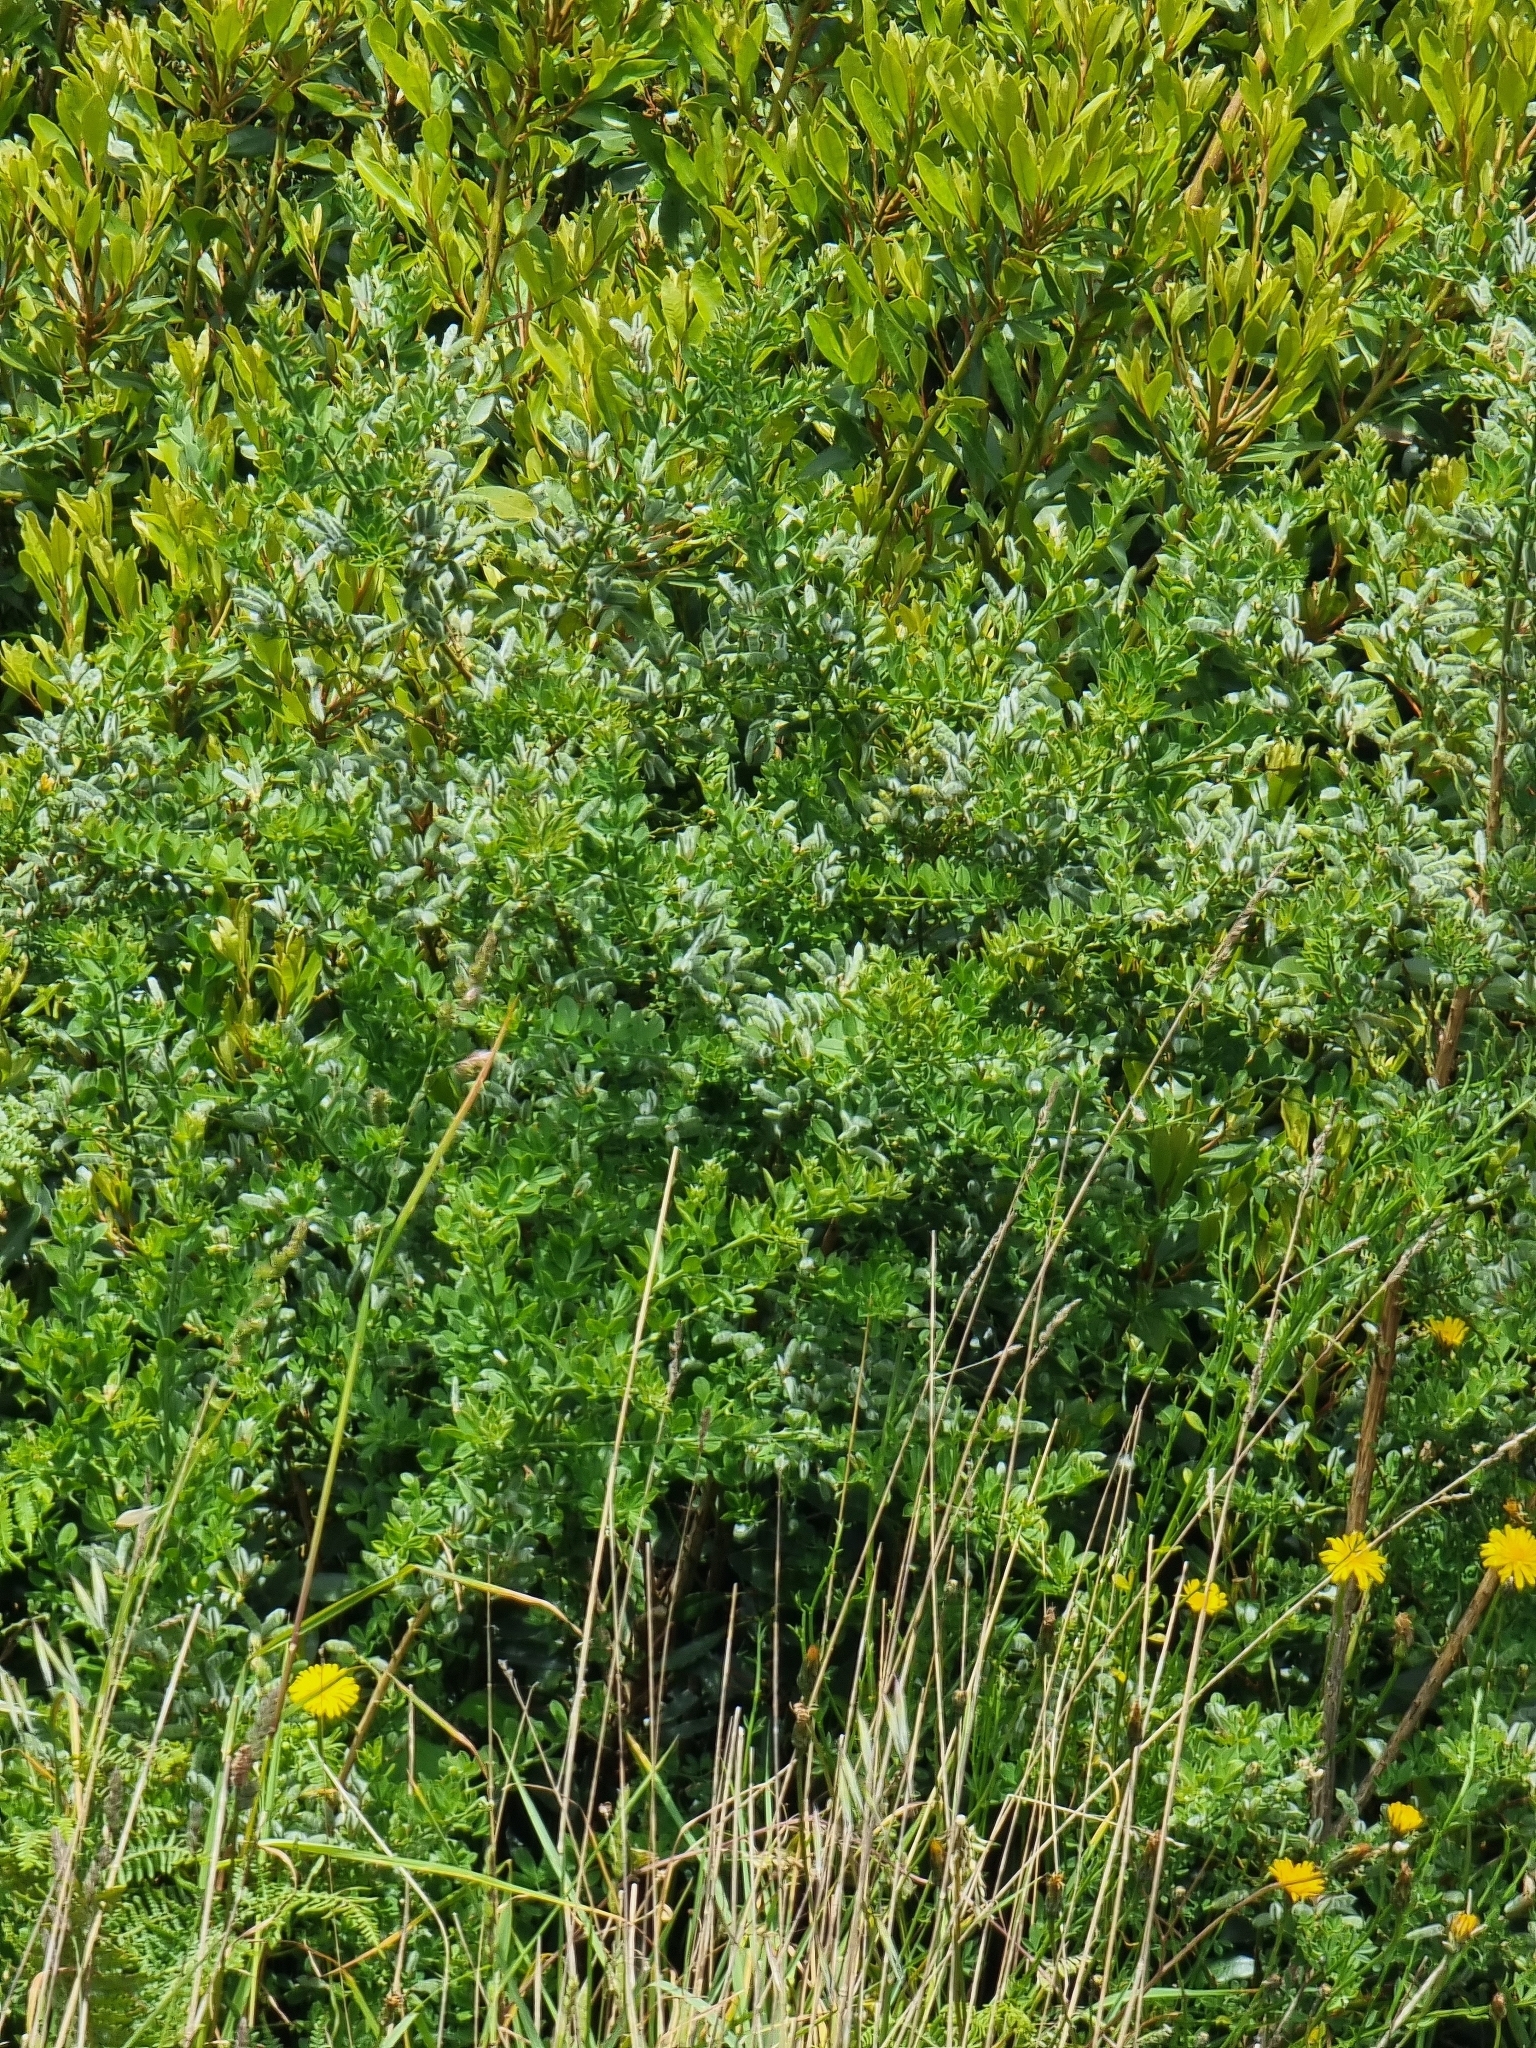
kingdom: Plantae
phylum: Tracheophyta
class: Magnoliopsida
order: Fabales
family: Fabaceae
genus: Genista
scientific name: Genista maderensis
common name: Madeira dyer's greenweed
